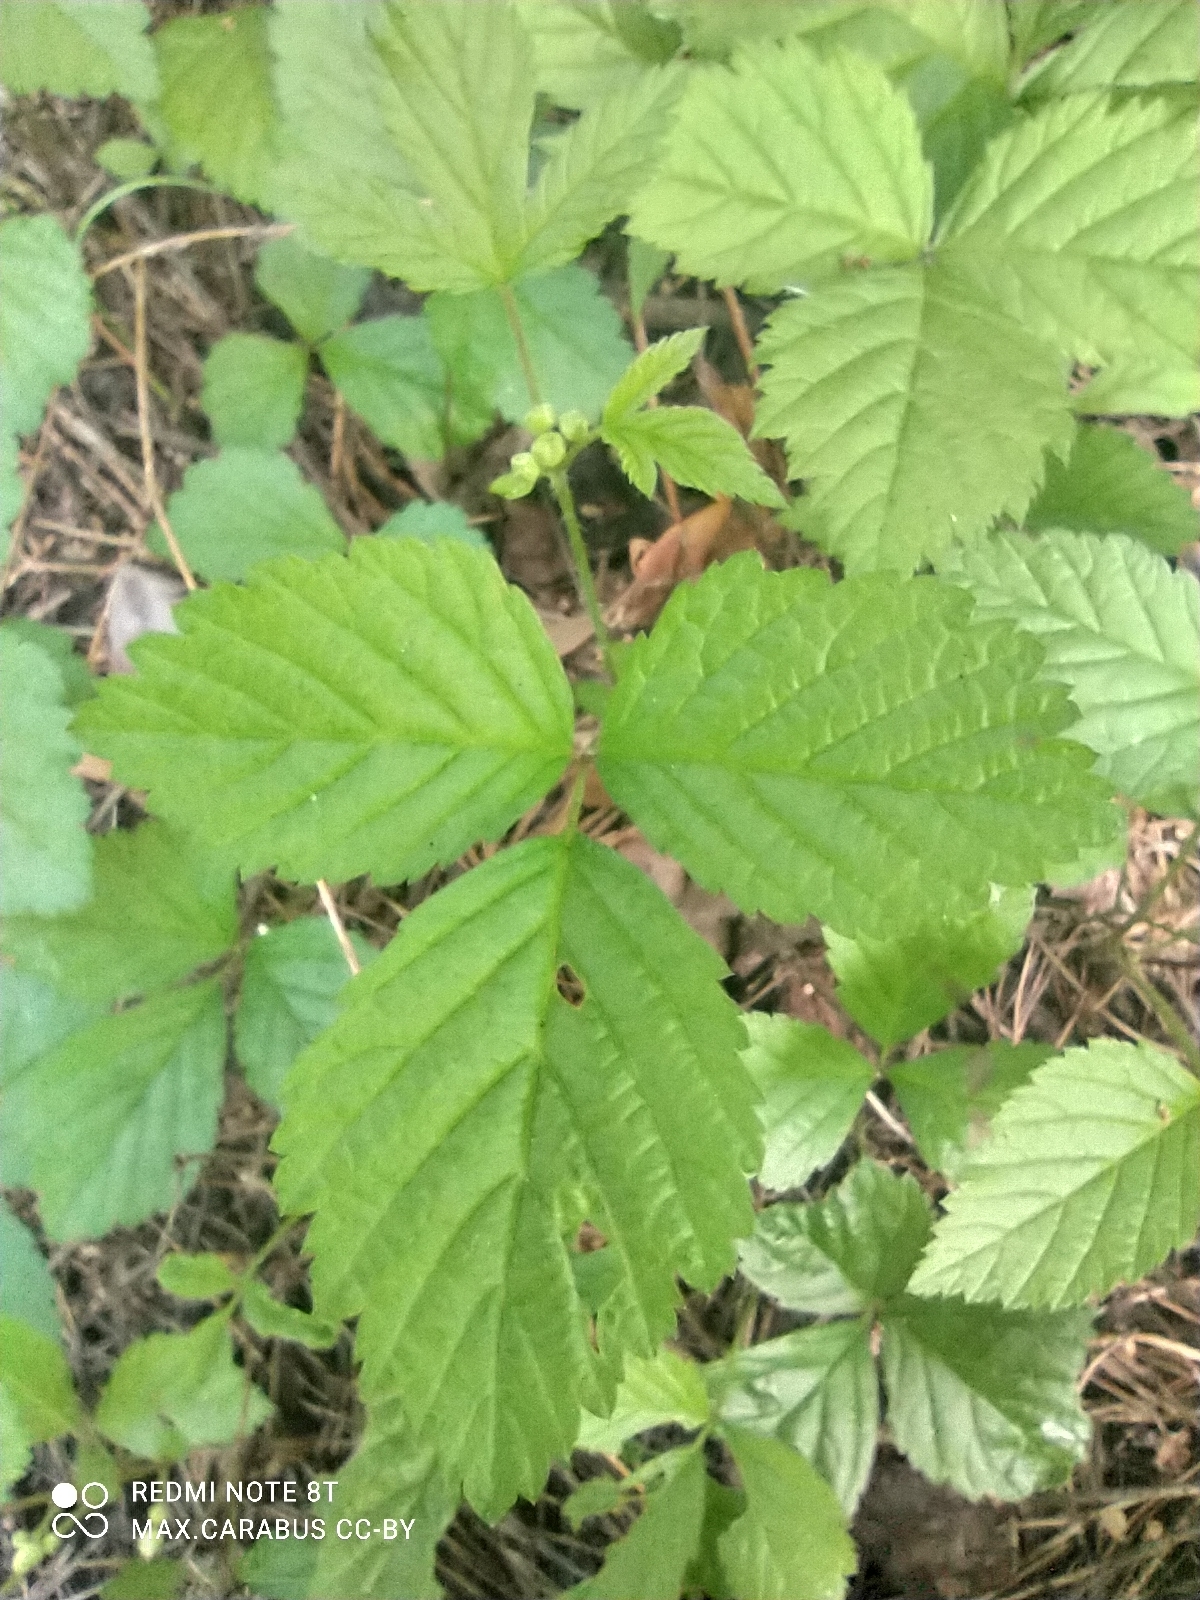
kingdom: Plantae
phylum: Tracheophyta
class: Magnoliopsida
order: Rosales
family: Rosaceae
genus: Rubus
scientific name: Rubus saxatilis
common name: Stone bramble
